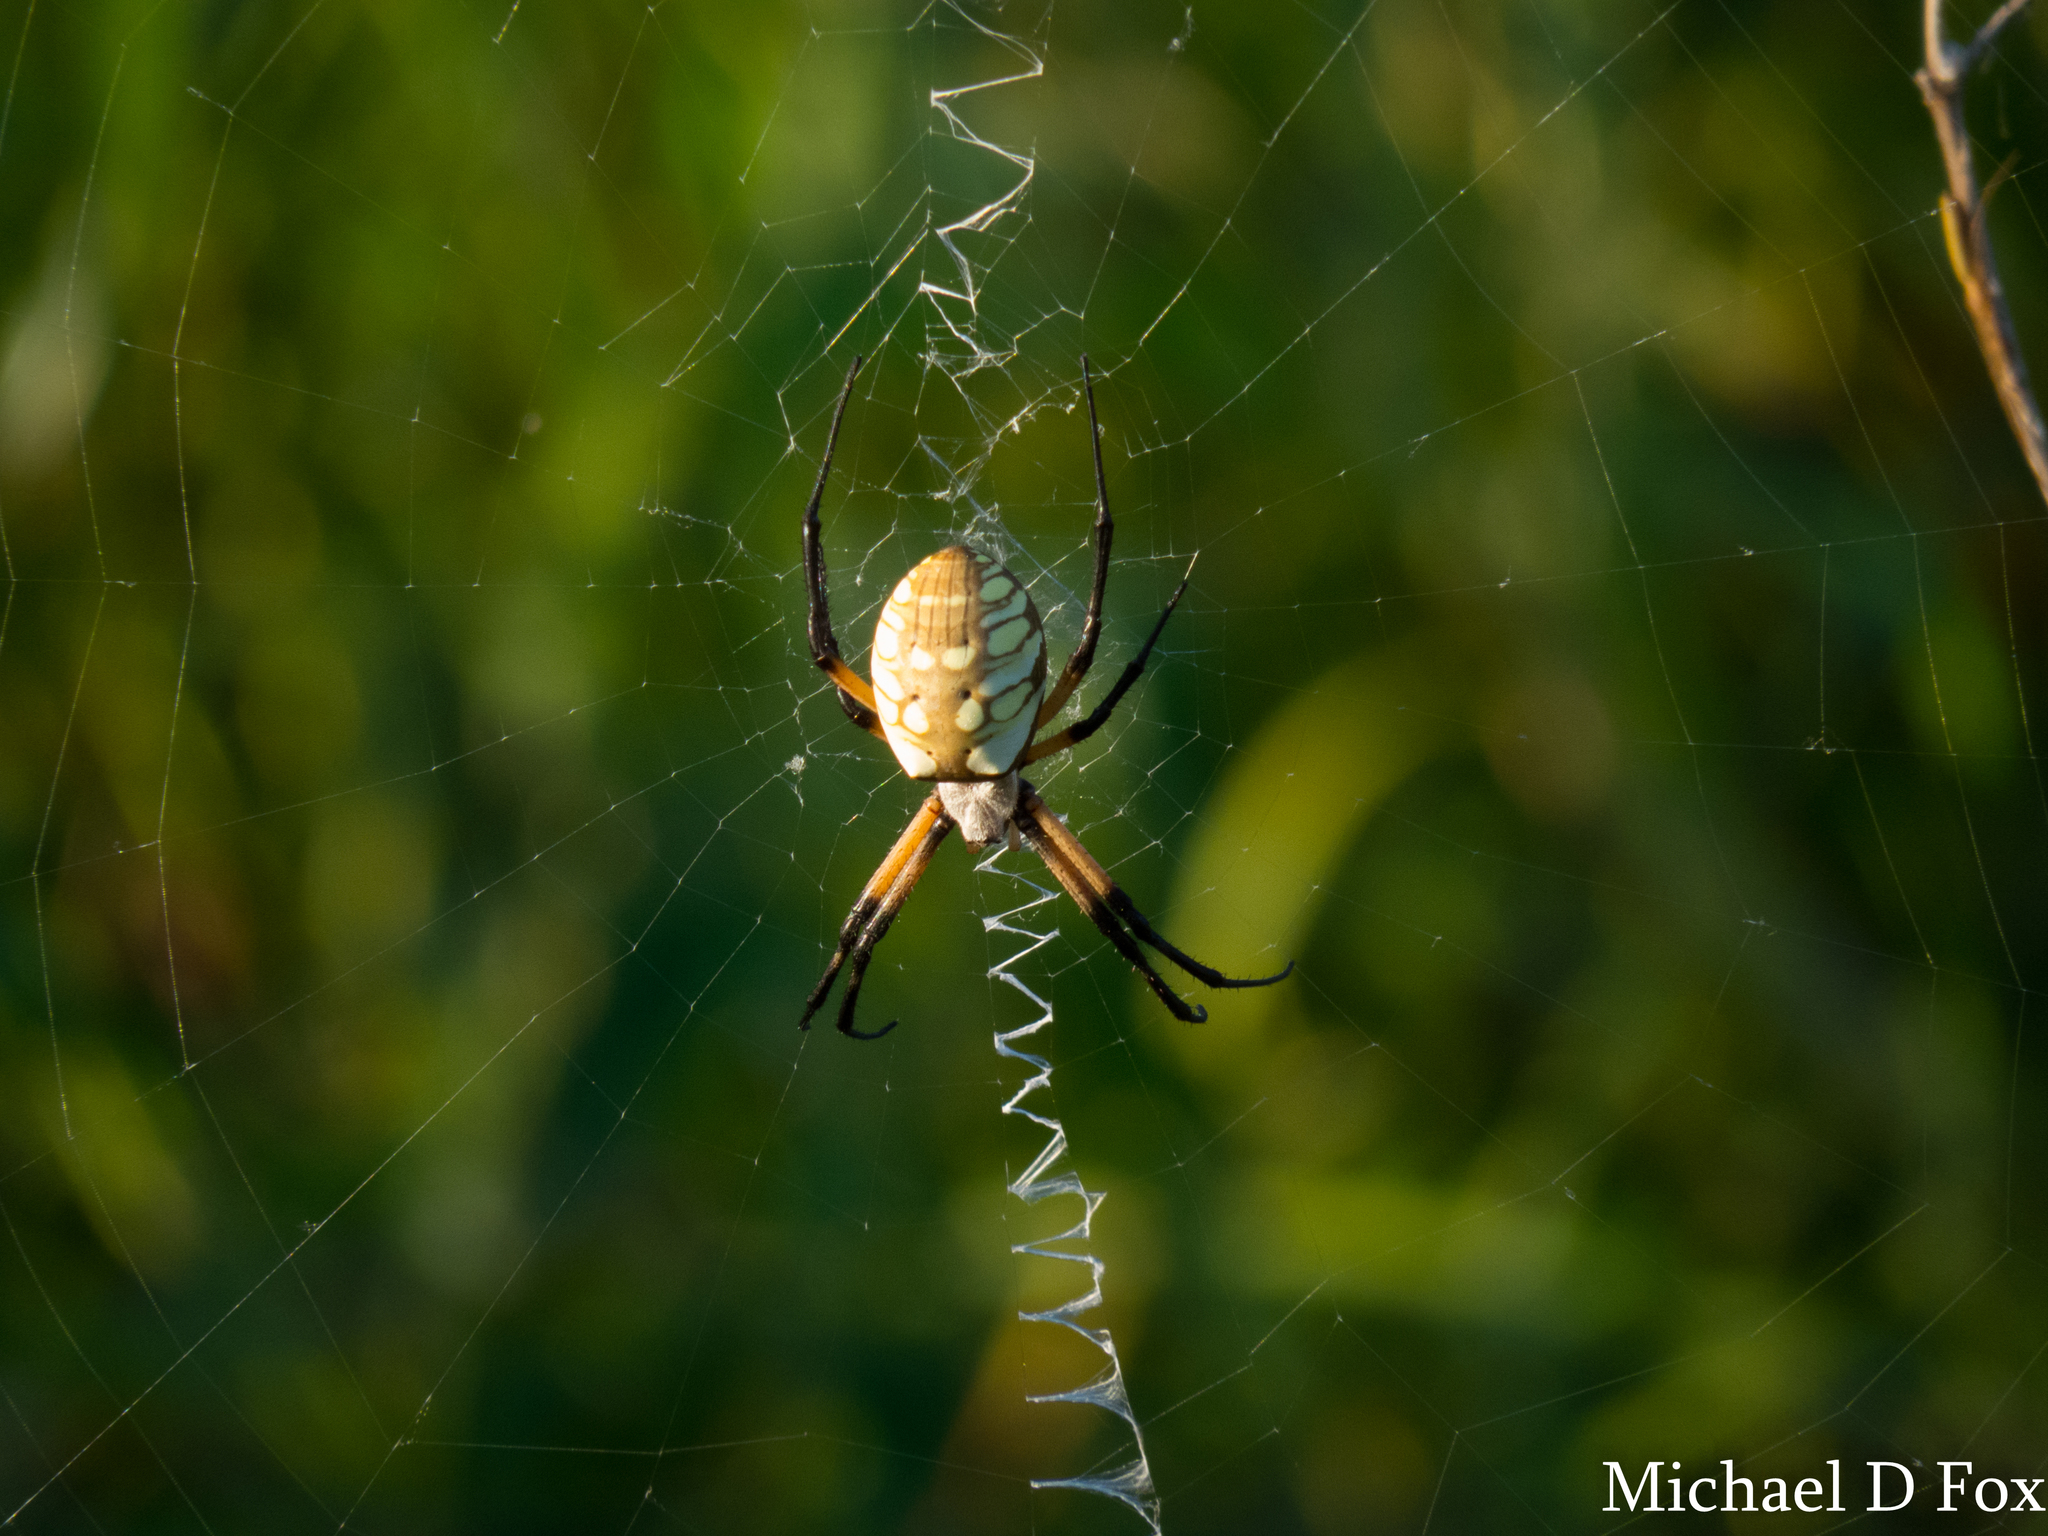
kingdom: Animalia
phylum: Arthropoda
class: Arachnida
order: Araneae
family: Araneidae
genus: Argiope
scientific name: Argiope aurantia
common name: Orb weavers
